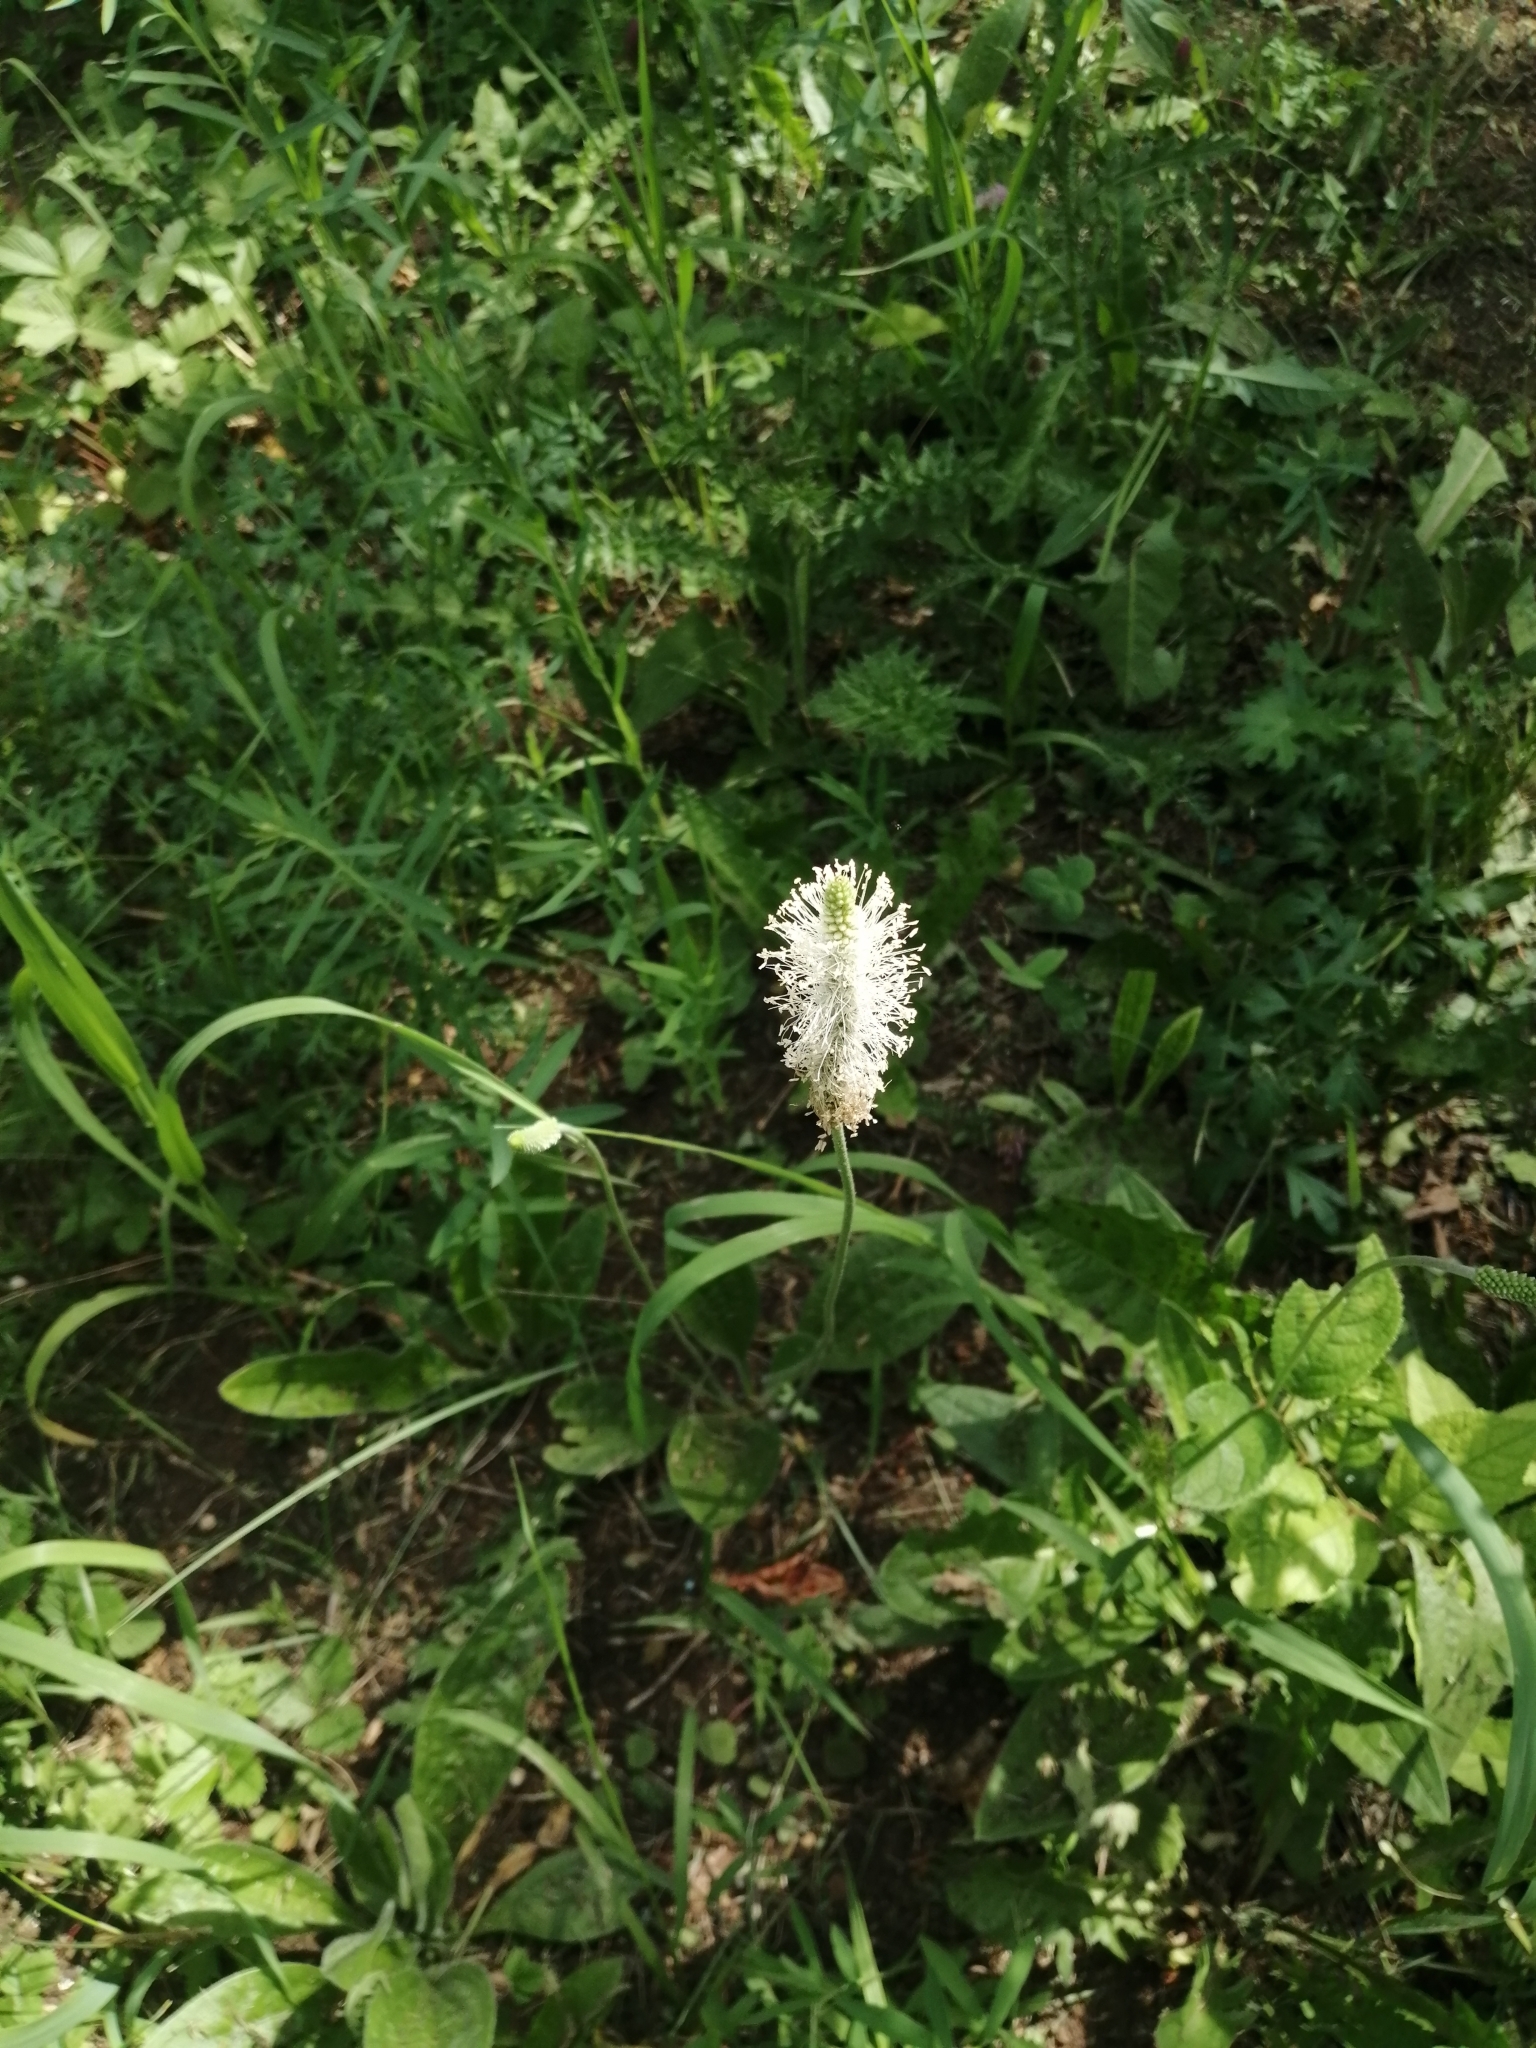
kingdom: Plantae
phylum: Tracheophyta
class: Magnoliopsida
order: Lamiales
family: Plantaginaceae
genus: Plantago
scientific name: Plantago urvillei
